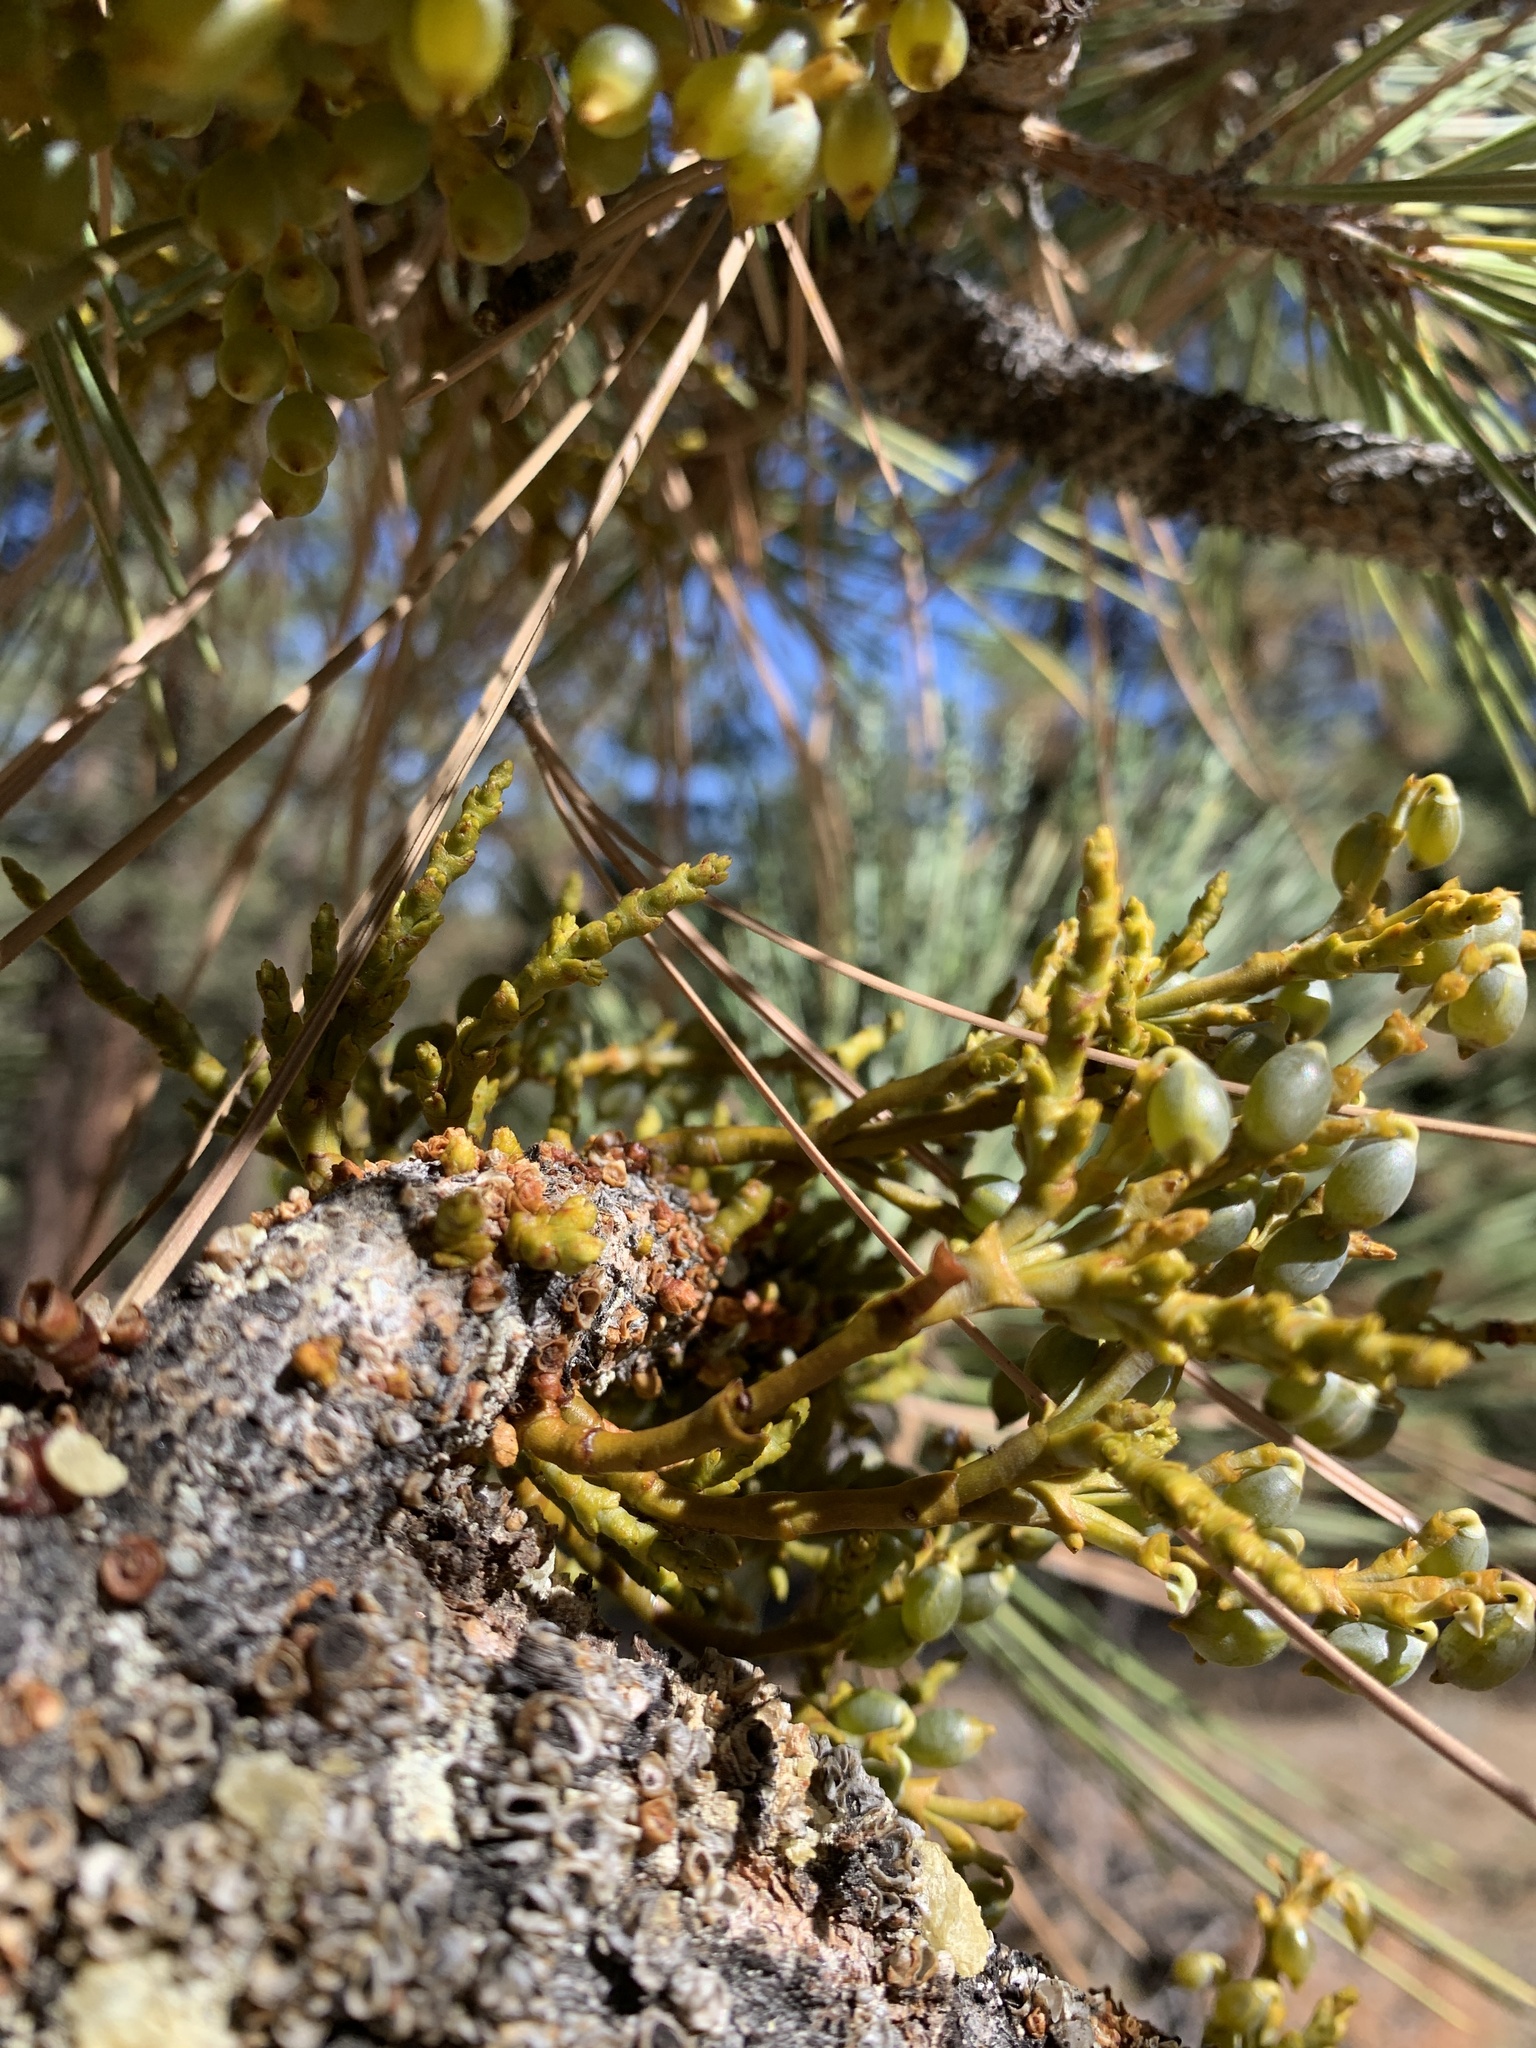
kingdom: Plantae
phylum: Tracheophyta
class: Magnoliopsida
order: Santalales
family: Viscaceae
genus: Arceuthobium
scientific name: Arceuthobium campylopodum
